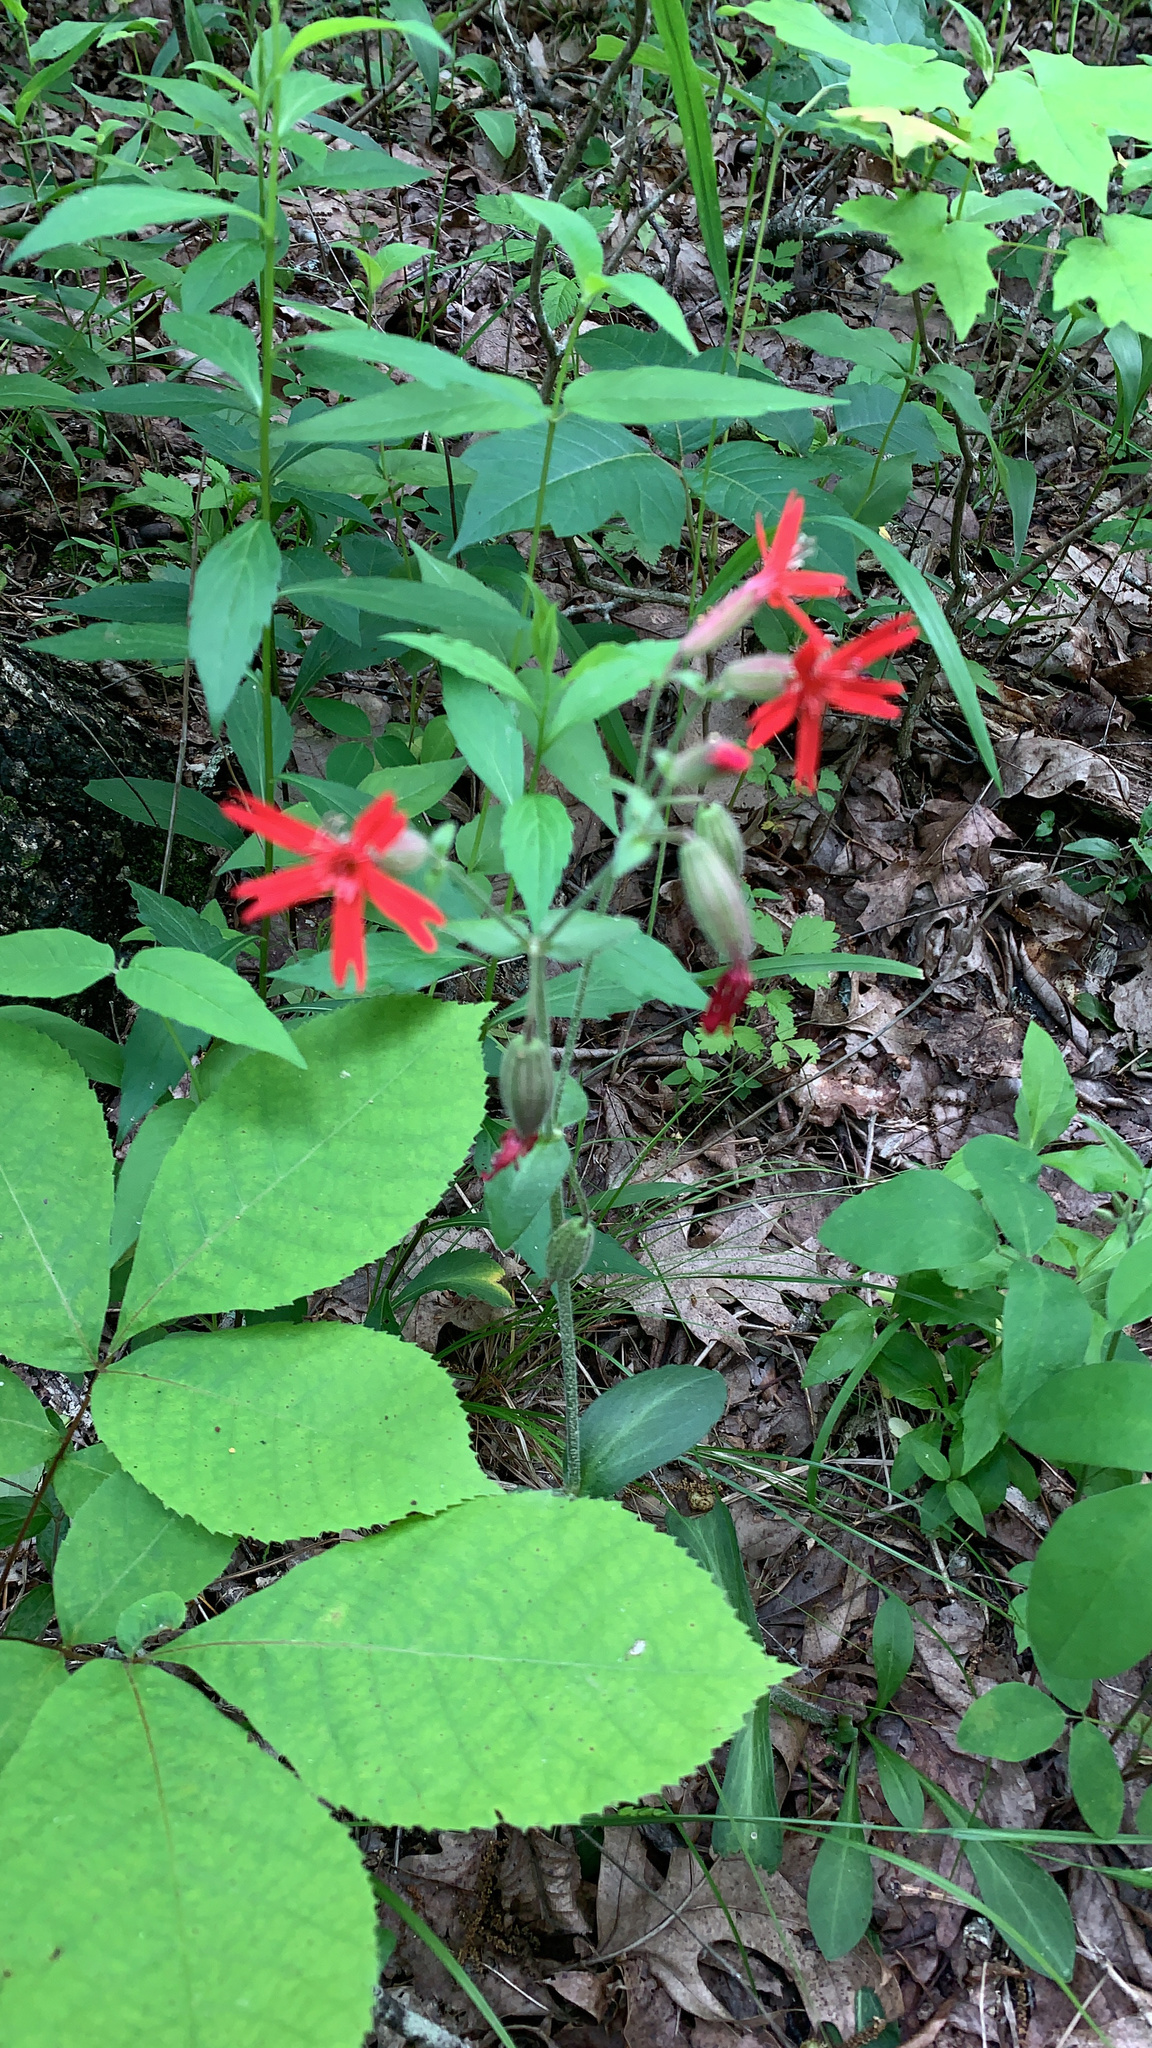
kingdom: Plantae
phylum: Tracheophyta
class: Magnoliopsida
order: Caryophyllales
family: Caryophyllaceae
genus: Silene
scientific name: Silene virginica
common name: Fire-pink
